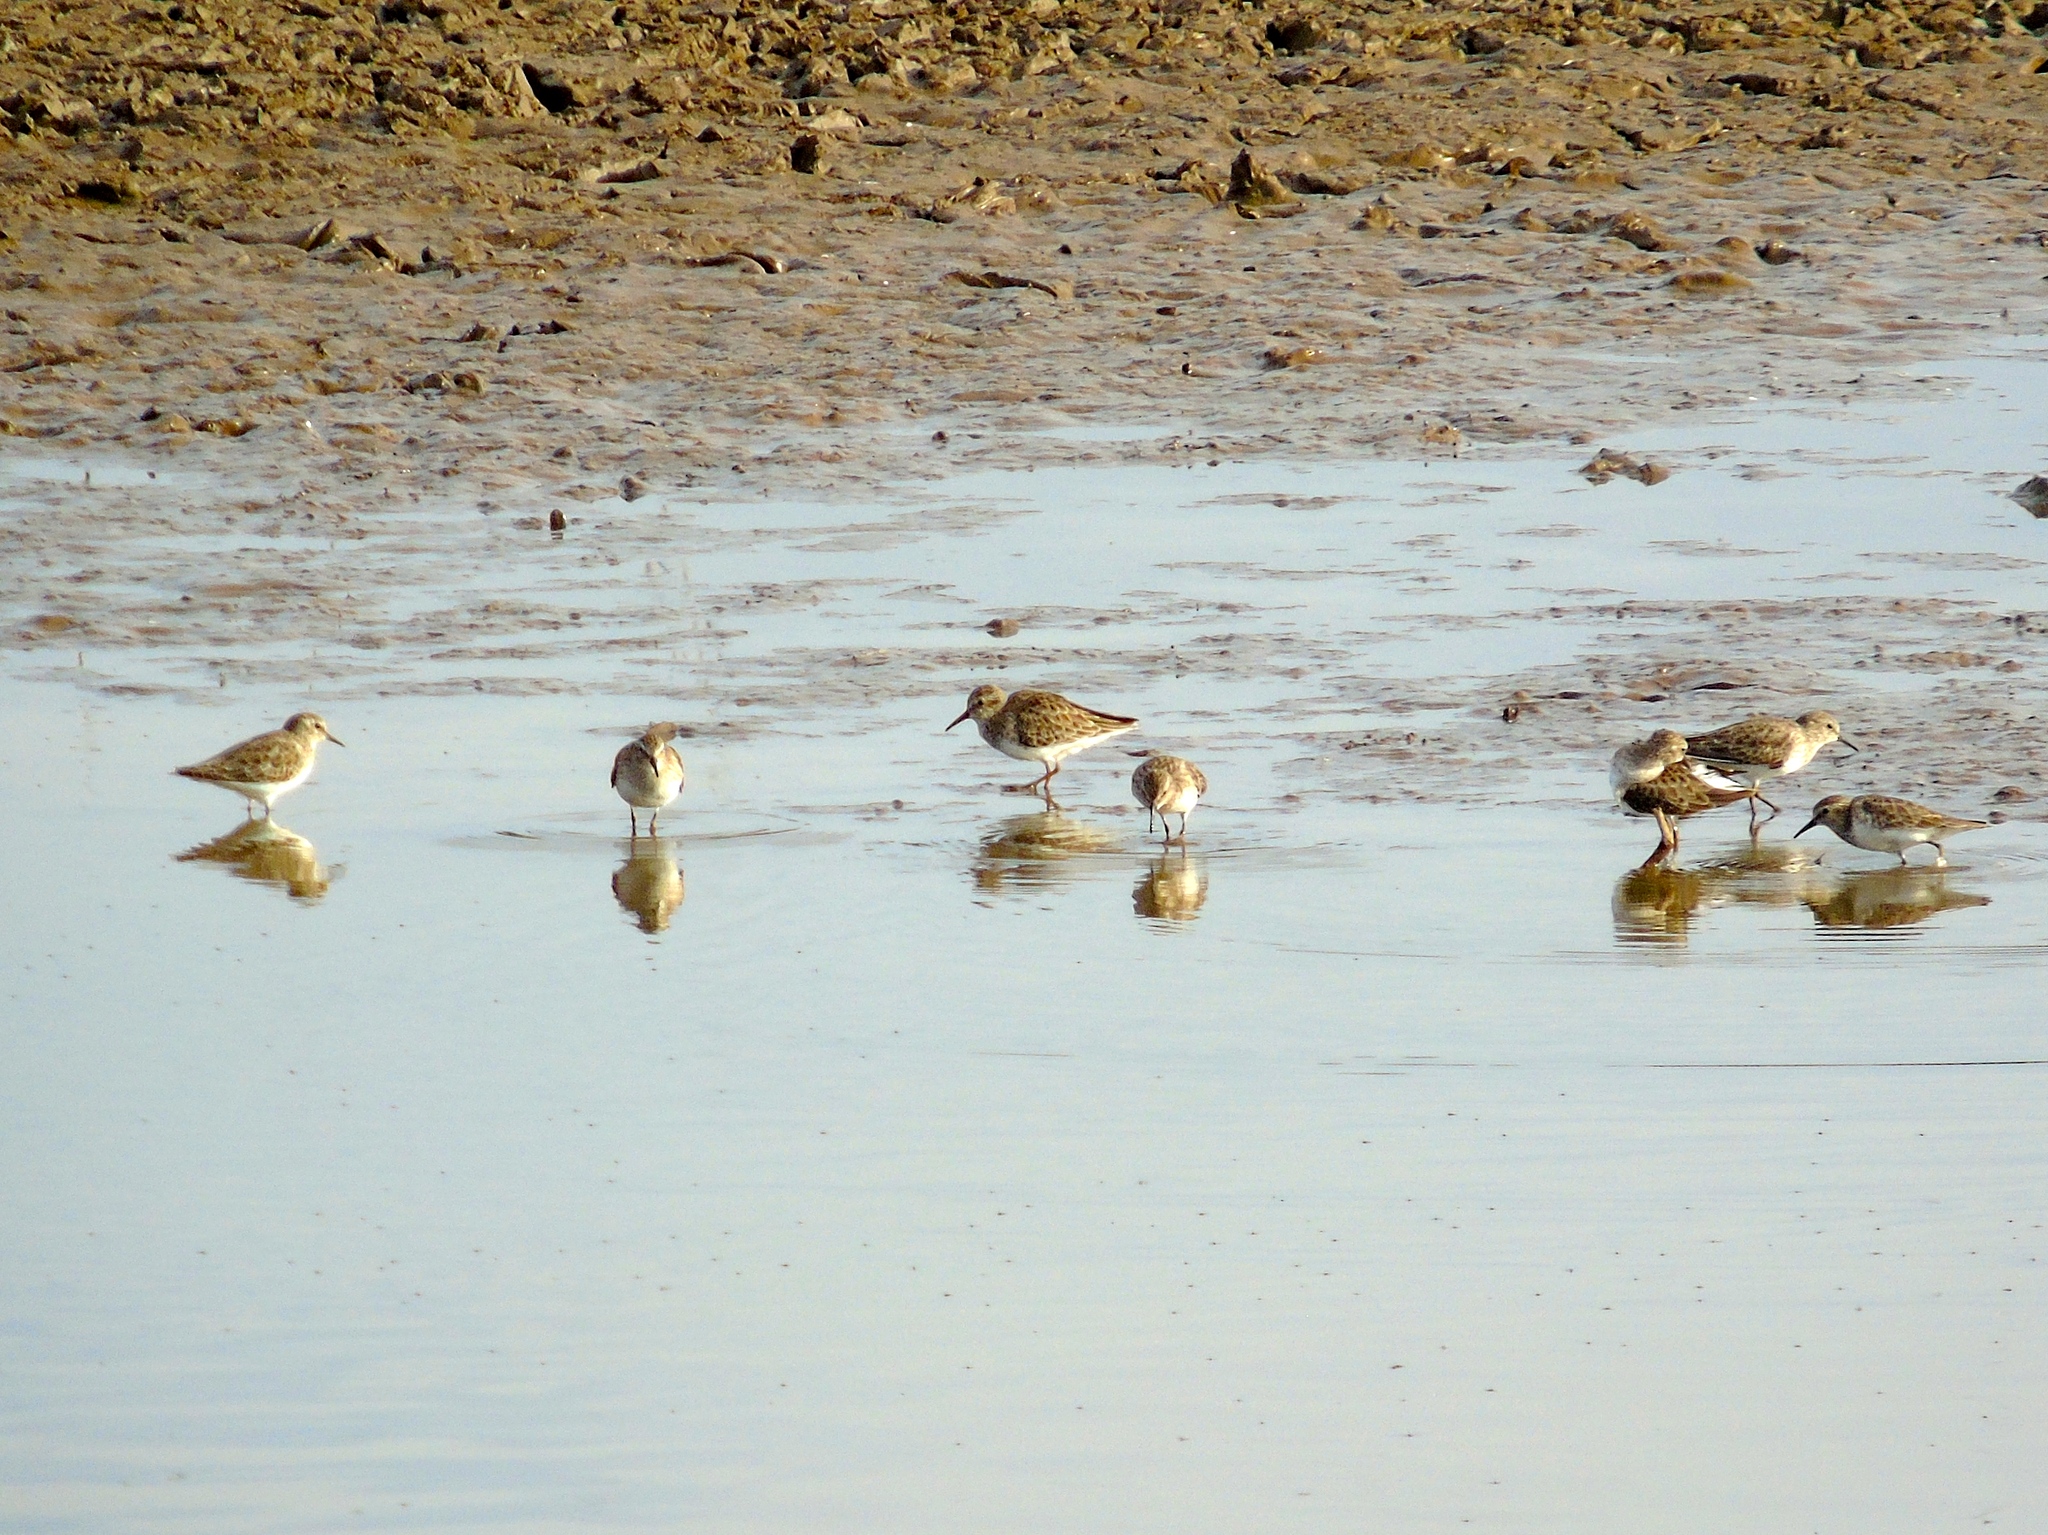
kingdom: Animalia
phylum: Chordata
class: Aves
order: Charadriiformes
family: Scolopacidae
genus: Calidris
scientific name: Calidris minutilla
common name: Least sandpiper
